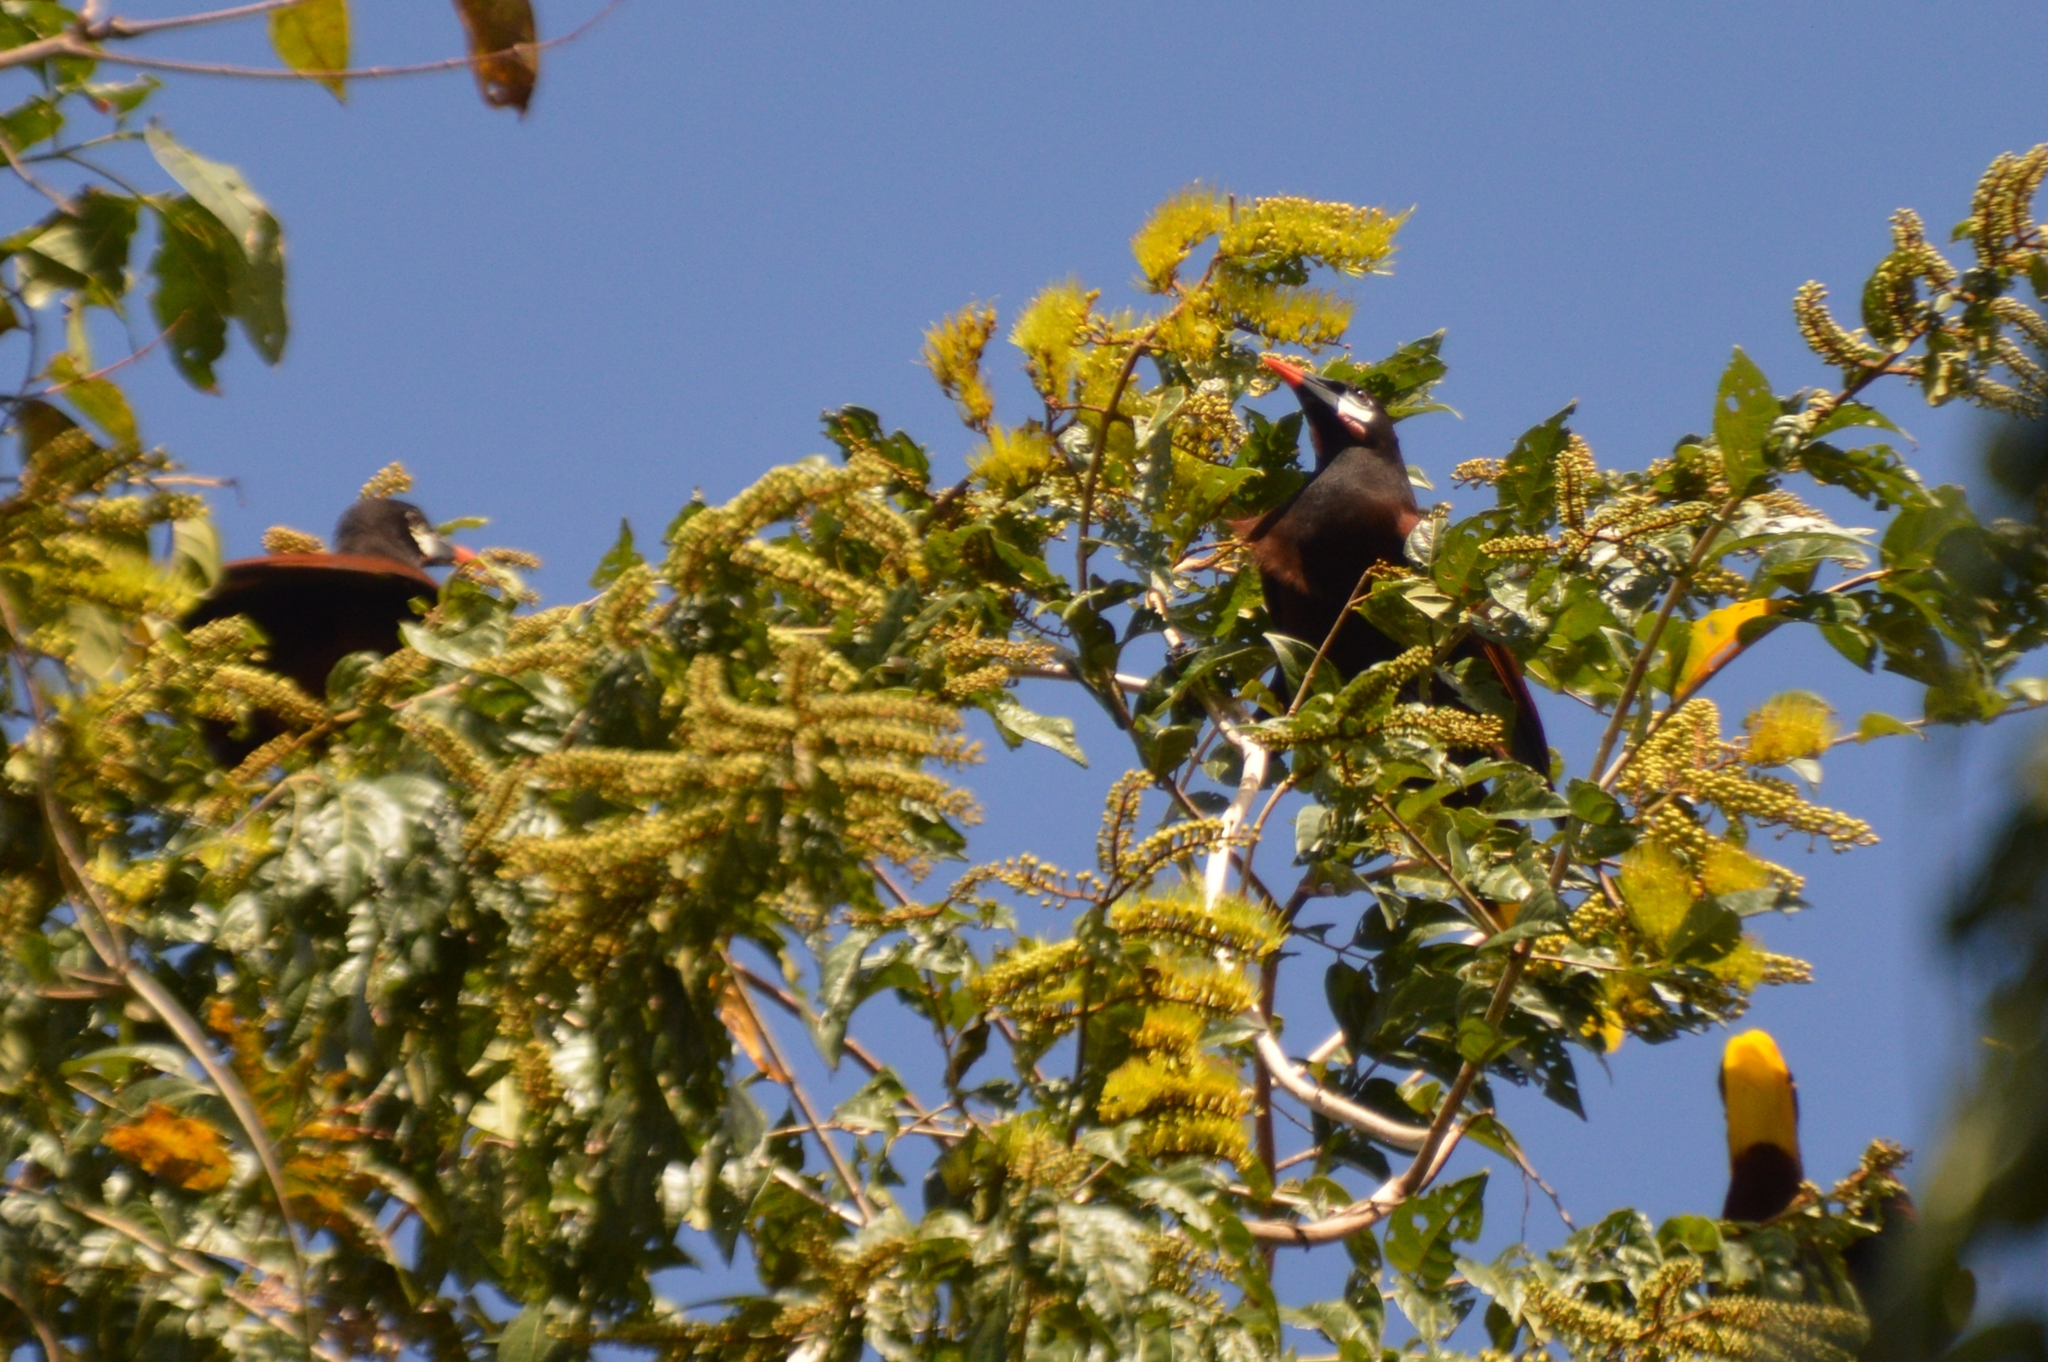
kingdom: Animalia
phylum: Chordata
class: Aves
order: Passeriformes
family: Icteridae
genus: Psarocolius
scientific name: Psarocolius montezuma
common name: Montezuma oropendola
